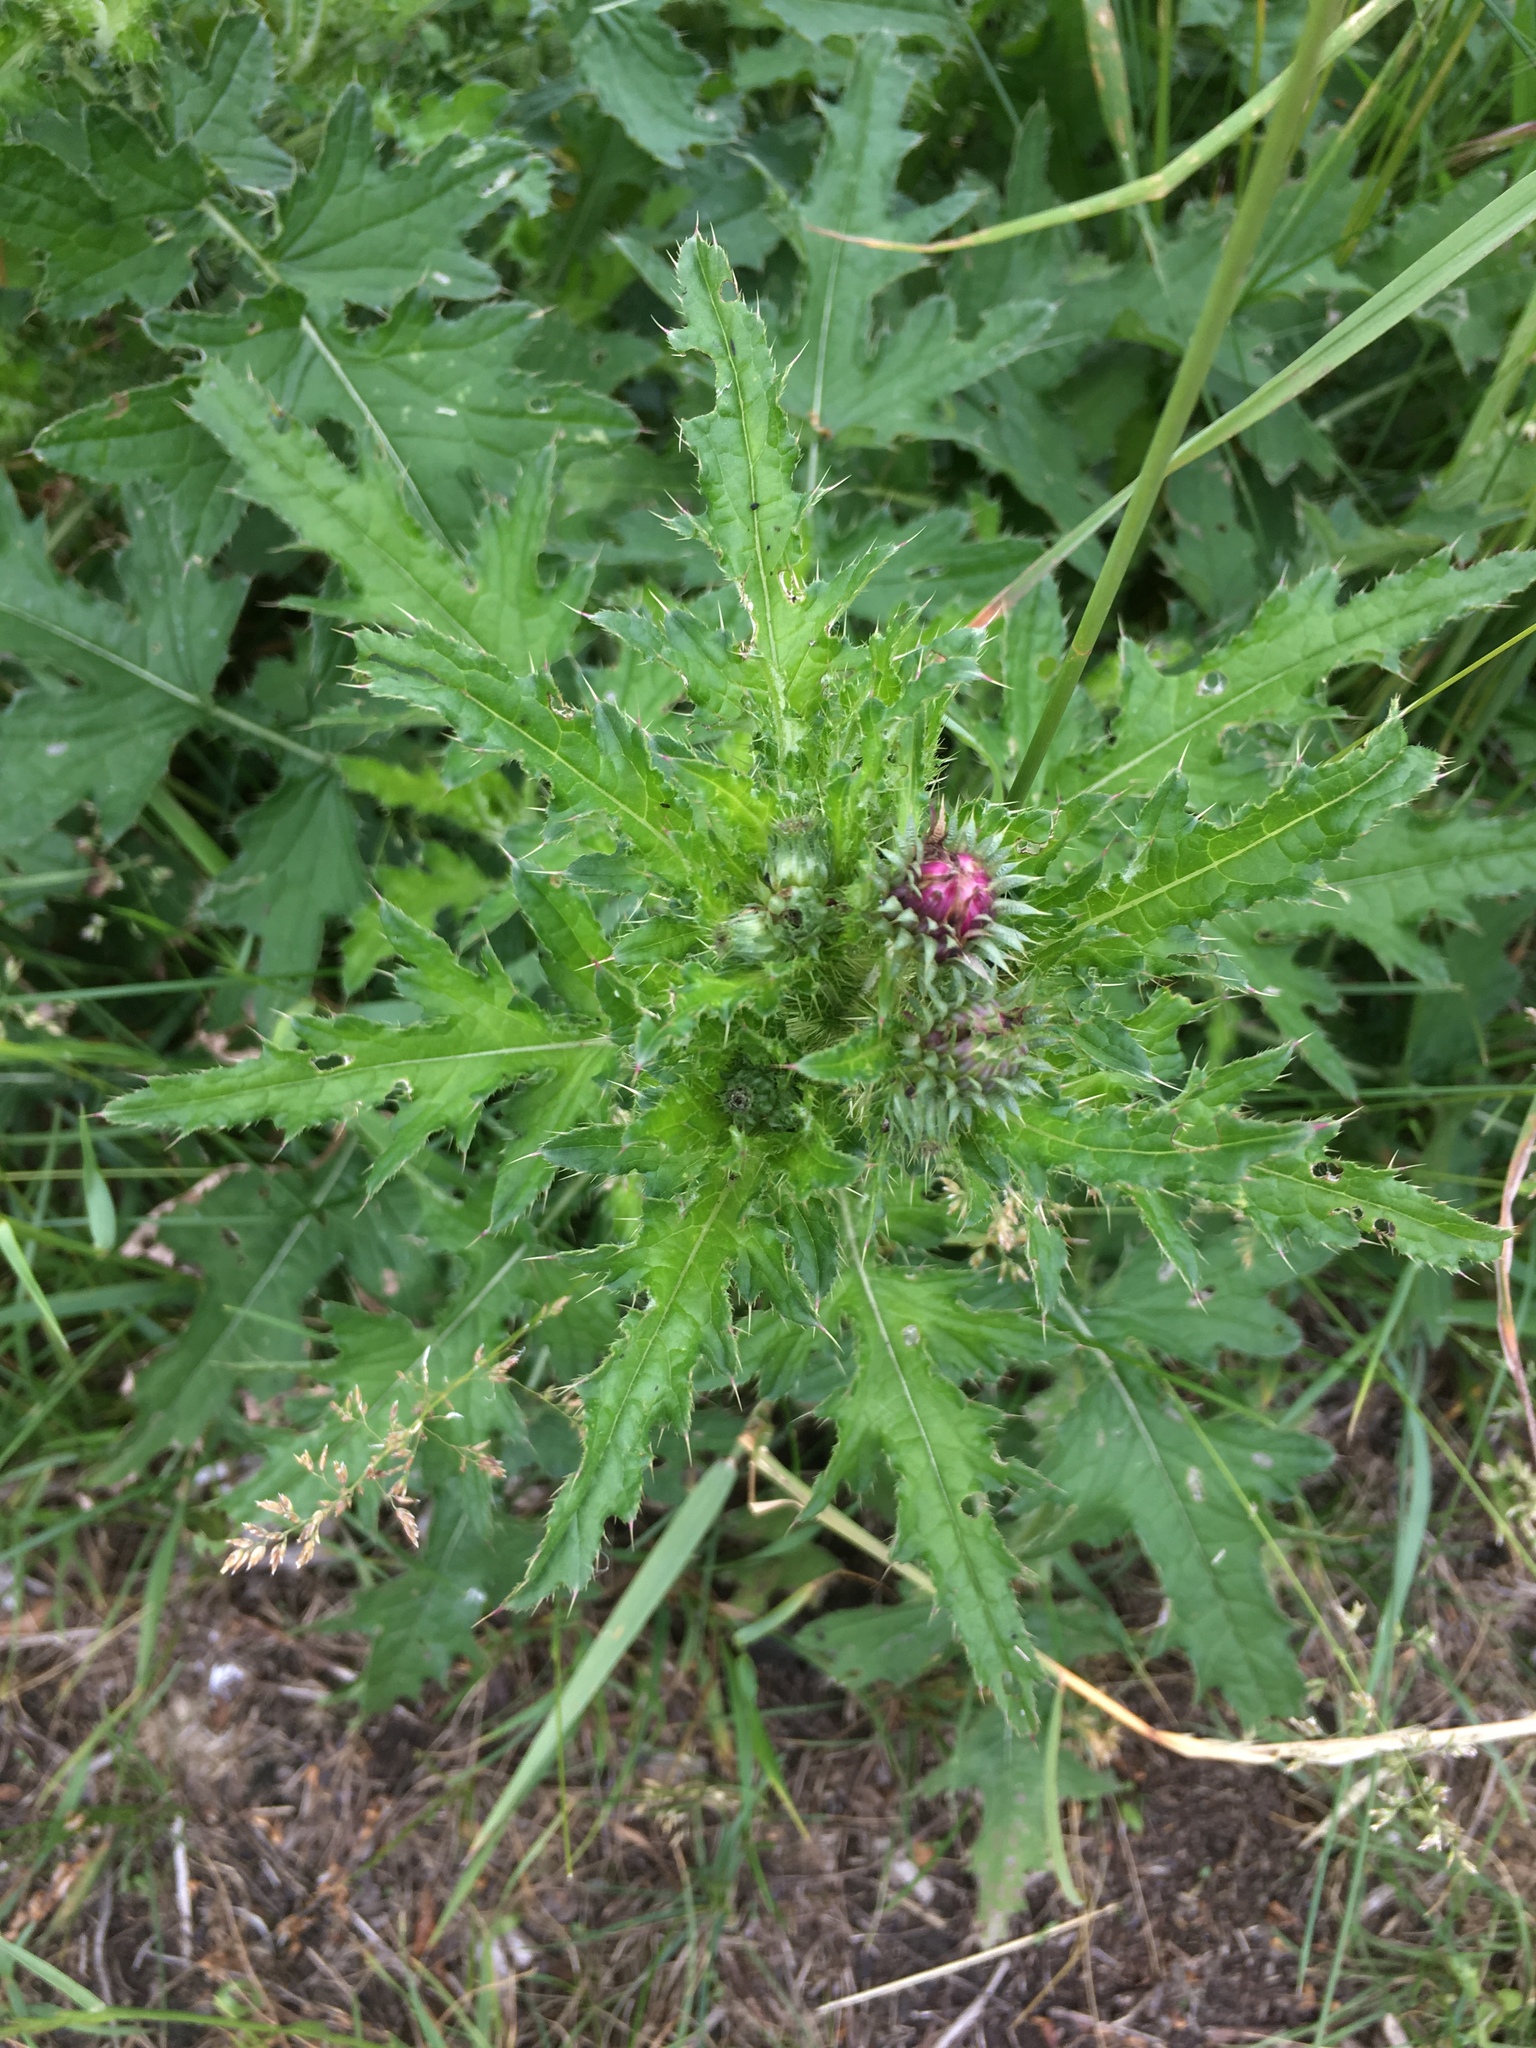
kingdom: Plantae
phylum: Tracheophyta
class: Magnoliopsida
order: Asterales
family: Asteraceae
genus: Carduus
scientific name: Carduus crispus
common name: Welted thistle
